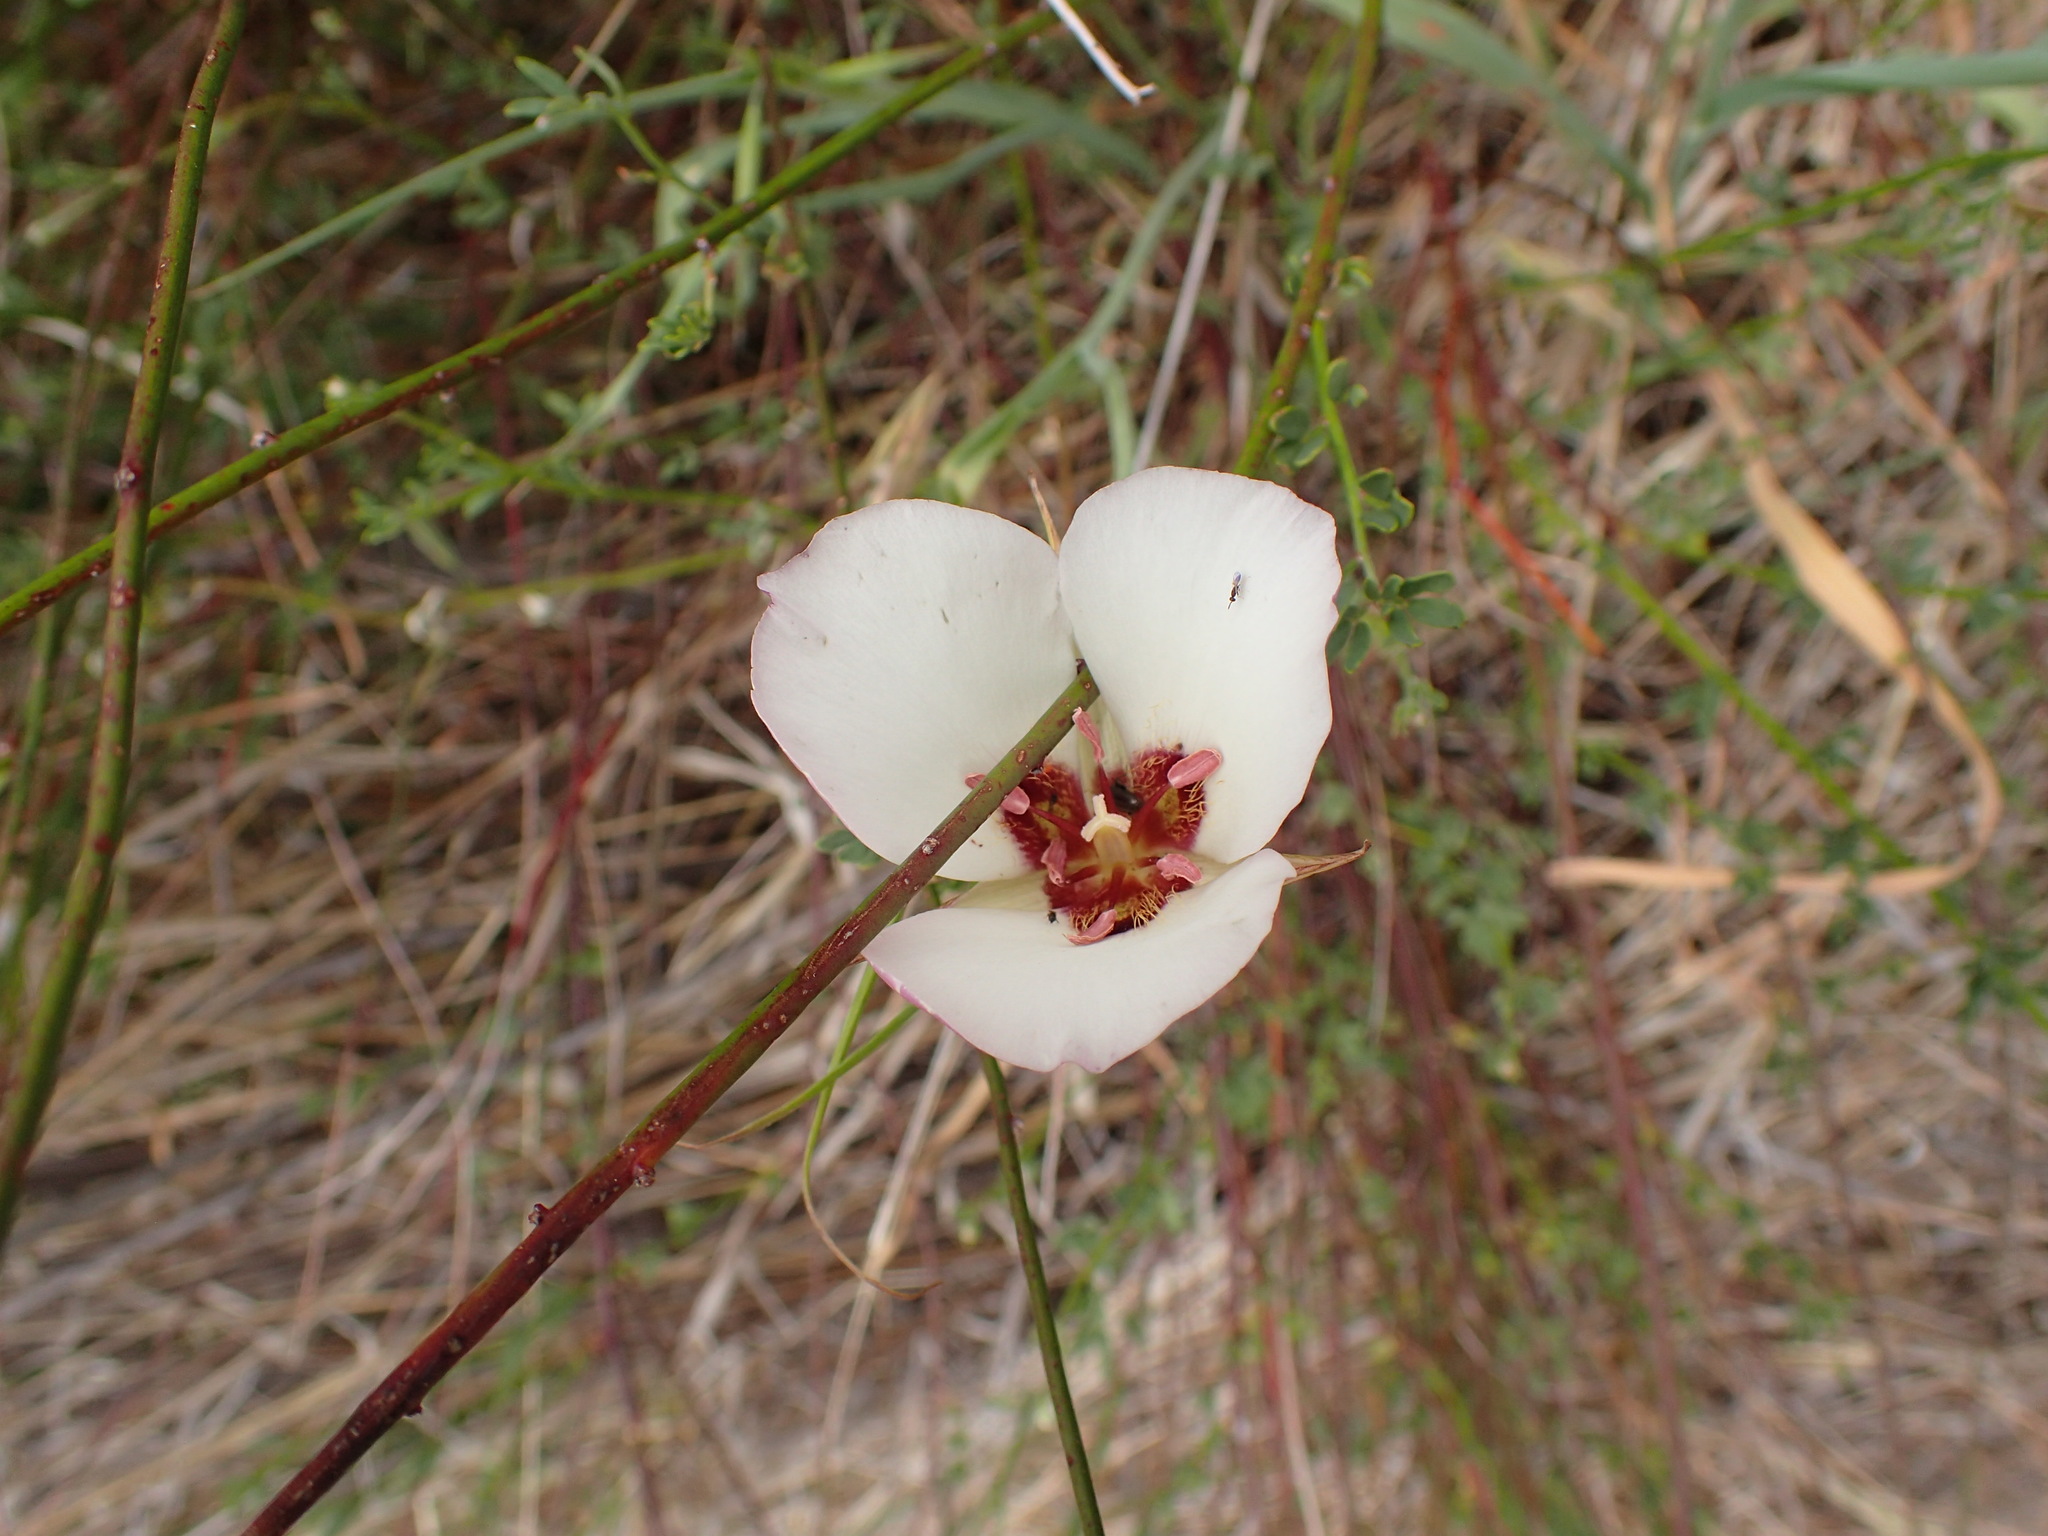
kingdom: Plantae
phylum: Tracheophyta
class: Liliopsida
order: Liliales
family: Liliaceae
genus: Calochortus
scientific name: Calochortus catalinae
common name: Catalina mariposa-lily
